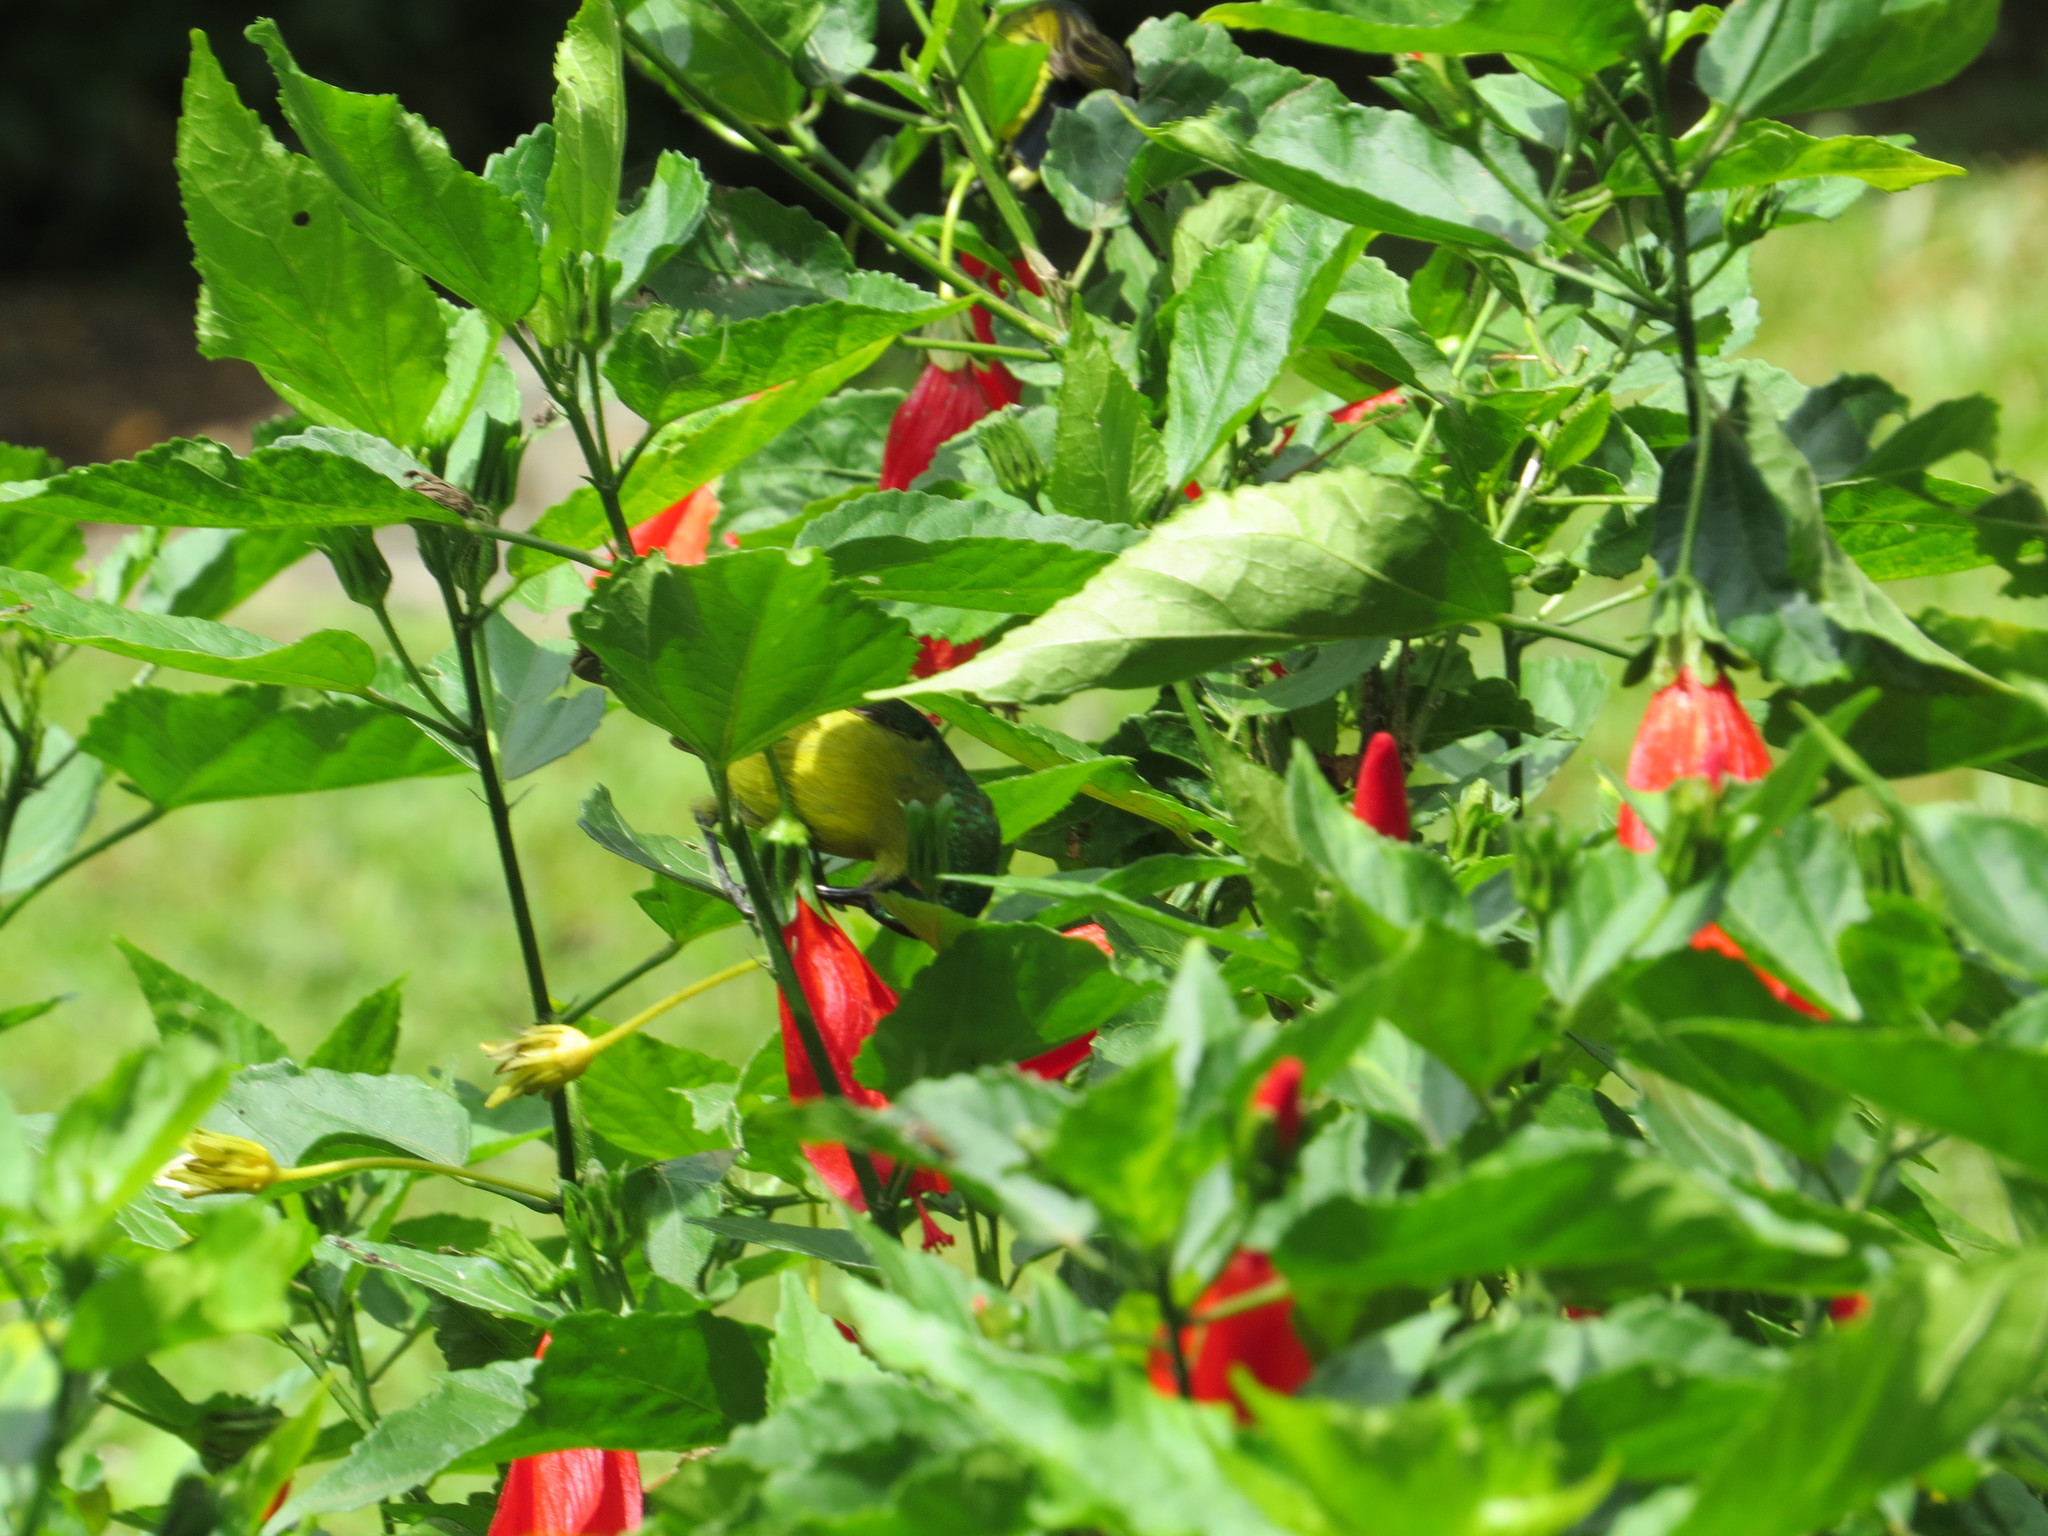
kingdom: Animalia
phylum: Chordata
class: Aves
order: Passeriformes
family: Nectariniidae
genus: Hedydipna
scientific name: Hedydipna collaris
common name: Collared sunbird
